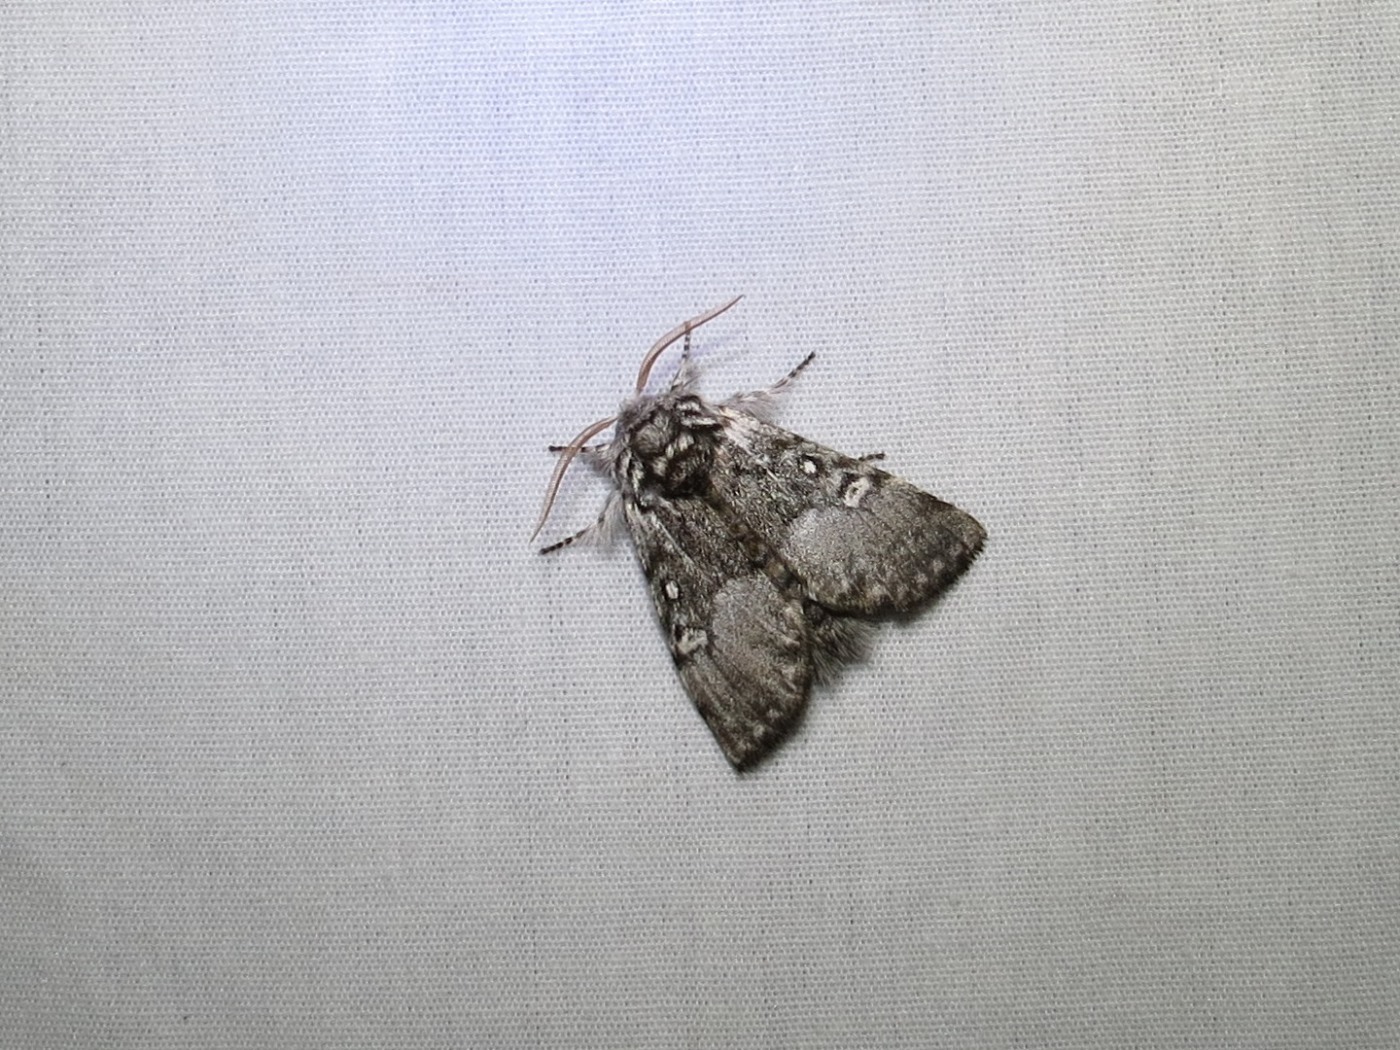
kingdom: Animalia
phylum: Arthropoda
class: Insecta
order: Lepidoptera
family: Noctuidae
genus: Colocasia
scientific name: Colocasia propinquilinea
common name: Close-banded demas
